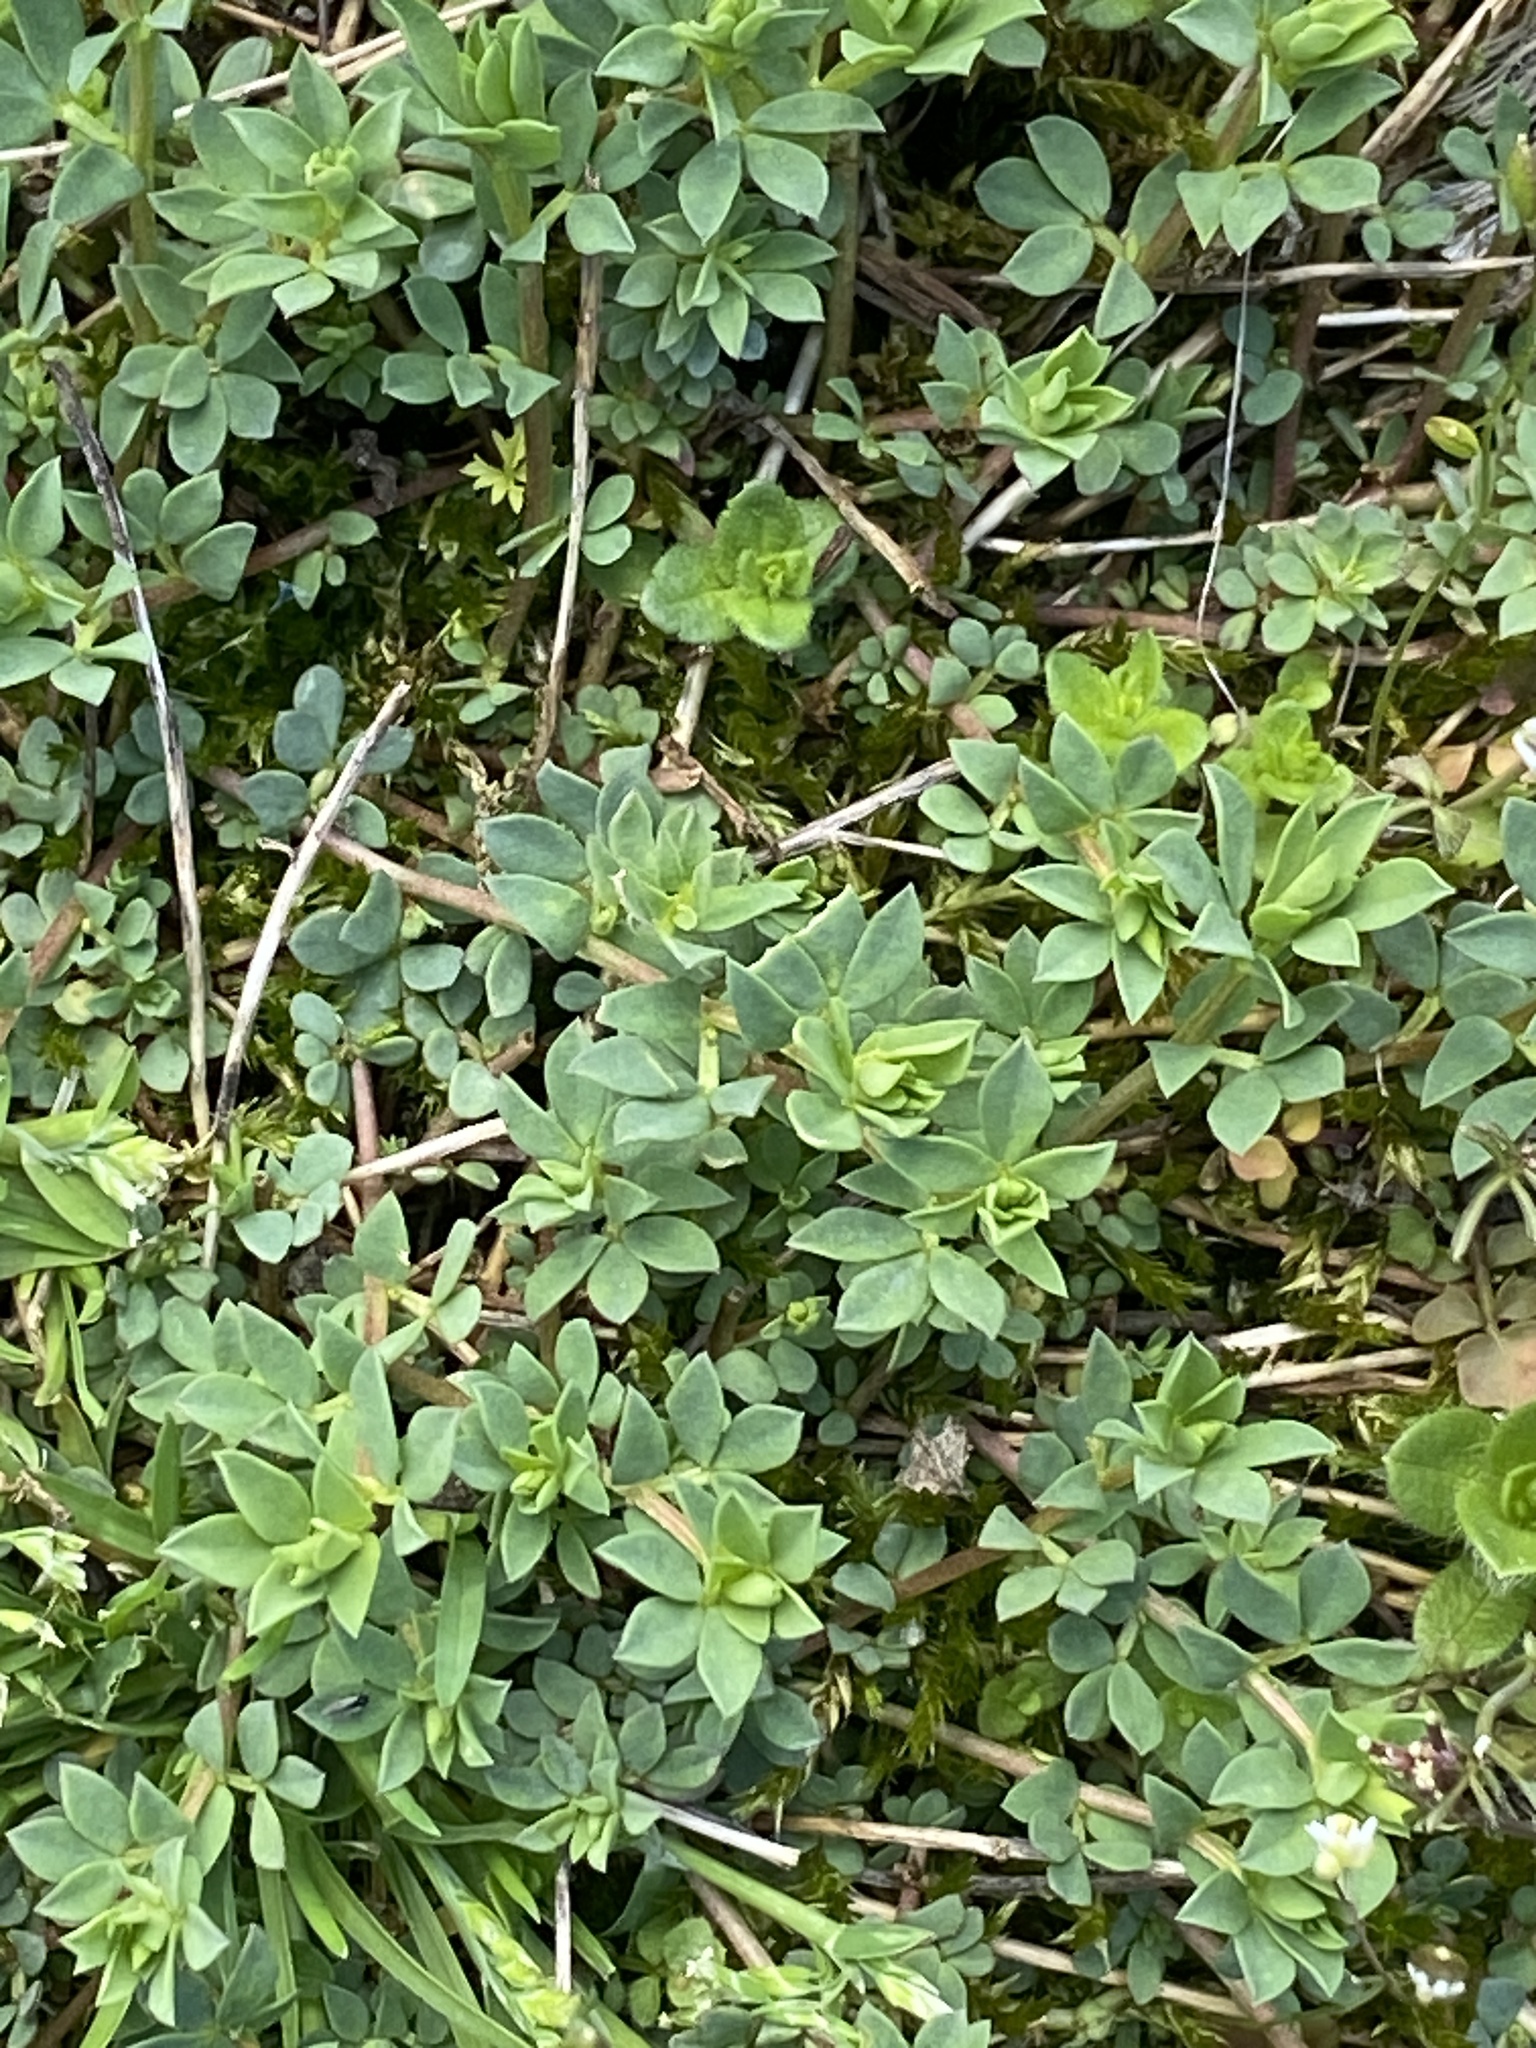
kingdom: Plantae
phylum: Tracheophyta
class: Magnoliopsida
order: Fabales
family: Fabaceae
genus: Lotus
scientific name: Lotus corniculatus
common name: Common bird's-foot-trefoil
